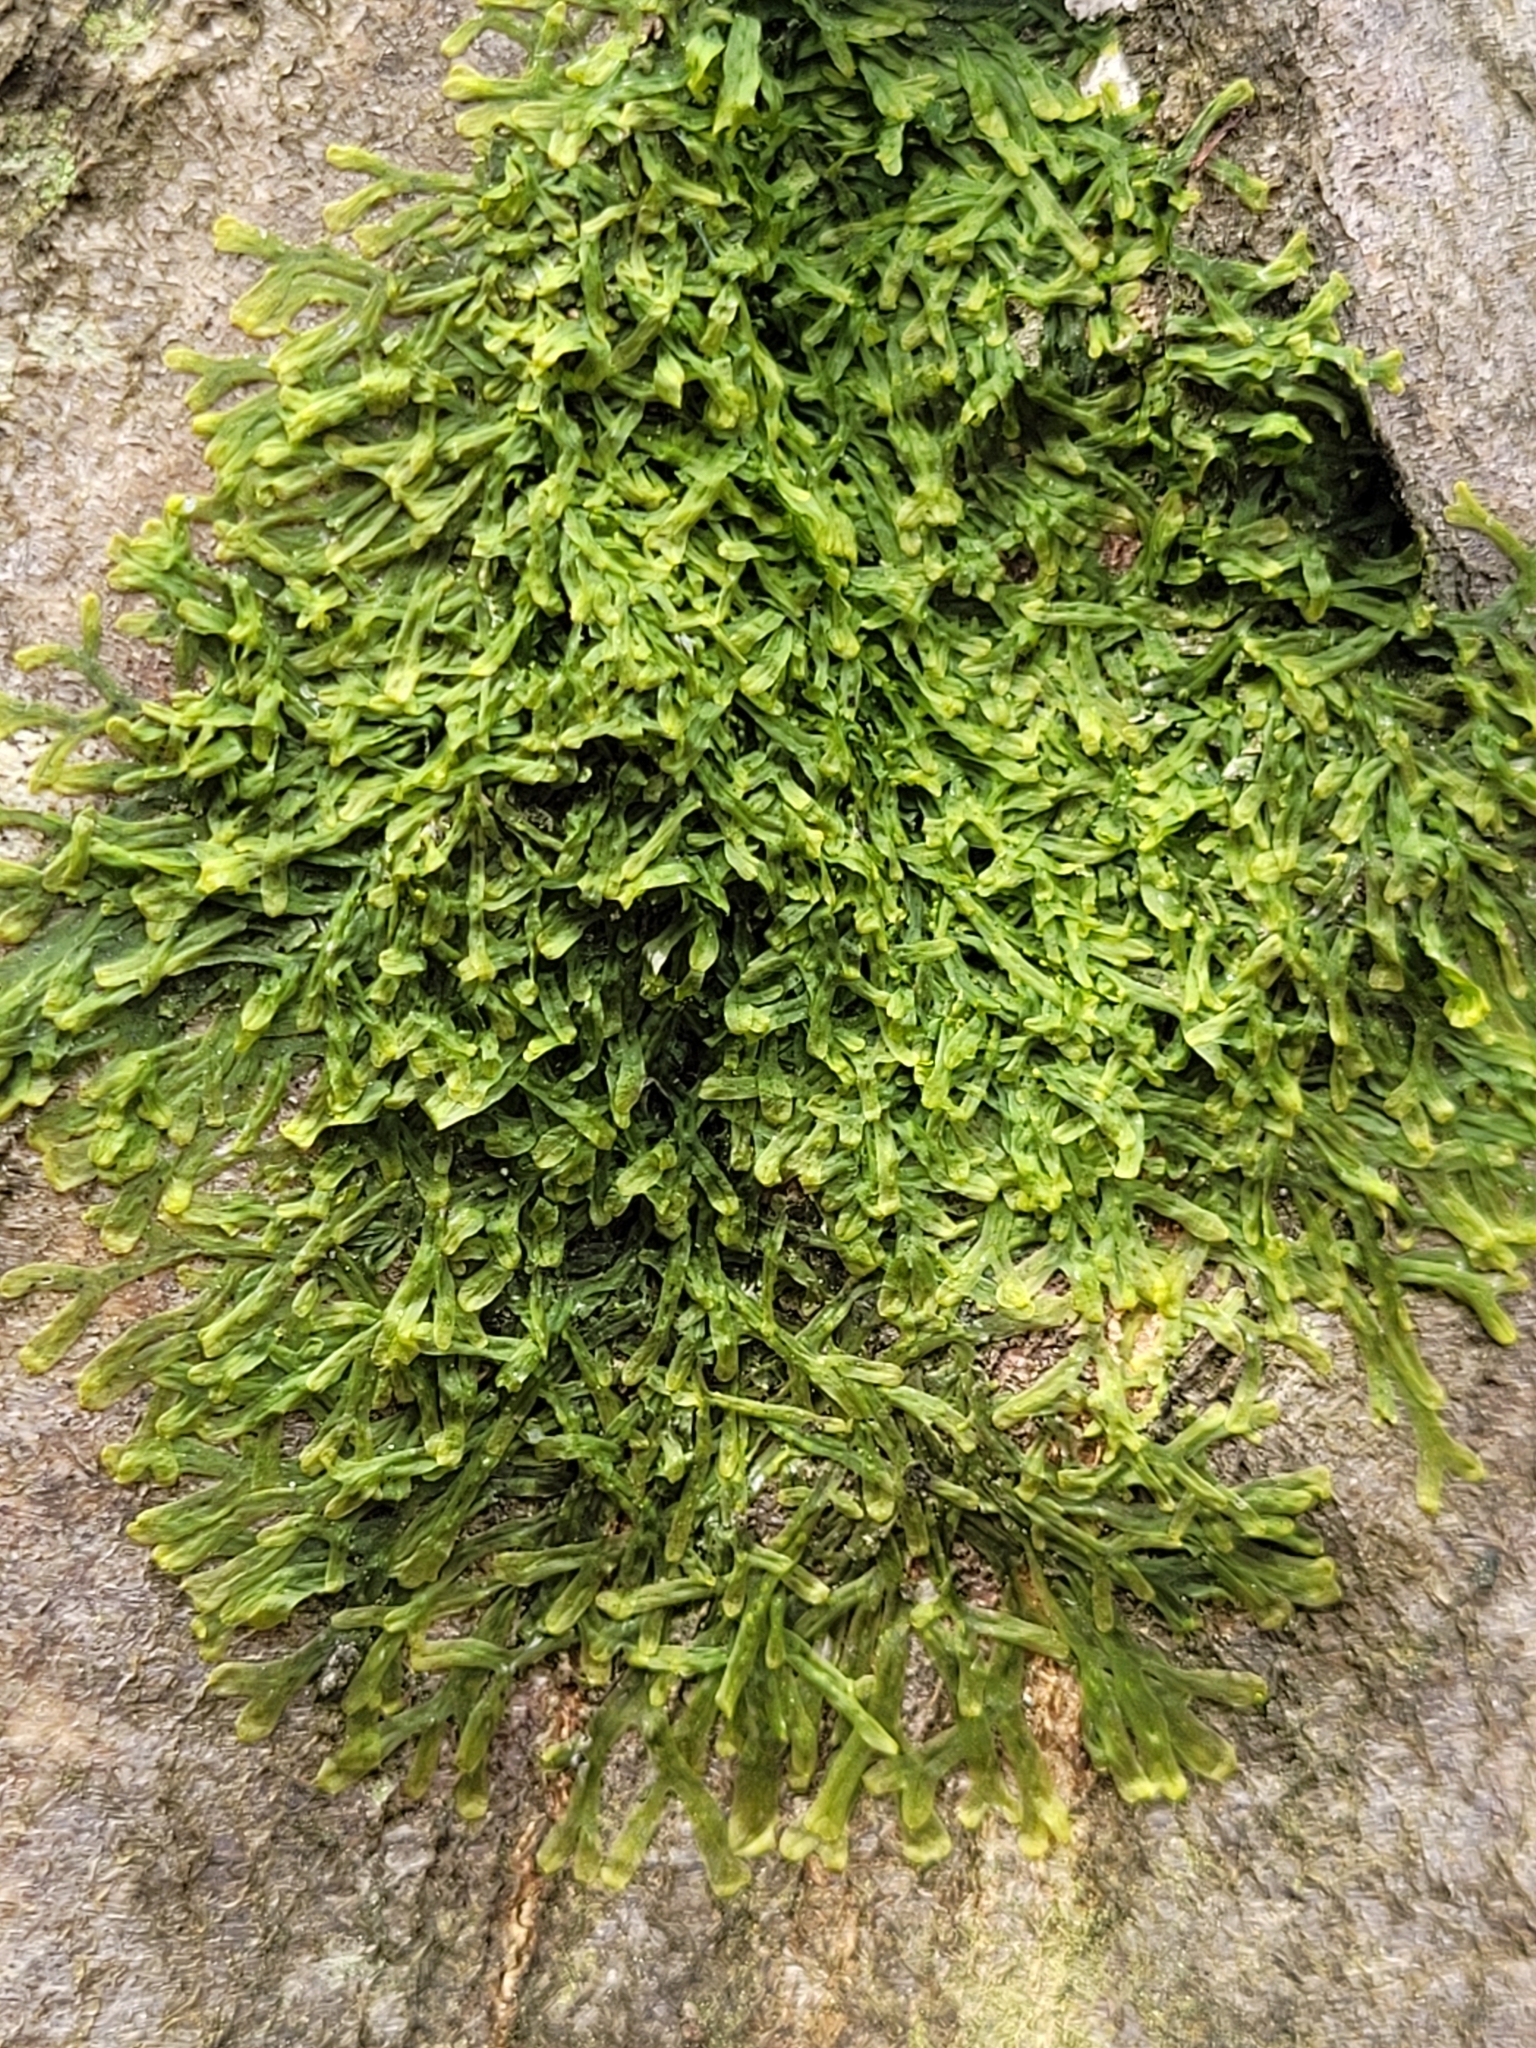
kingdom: Plantae
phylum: Marchantiophyta
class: Jungermanniopsida
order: Metzgeriales
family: Metzgeriaceae
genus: Metzgeria
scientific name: Metzgeria furcata
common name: Forked veilwort
